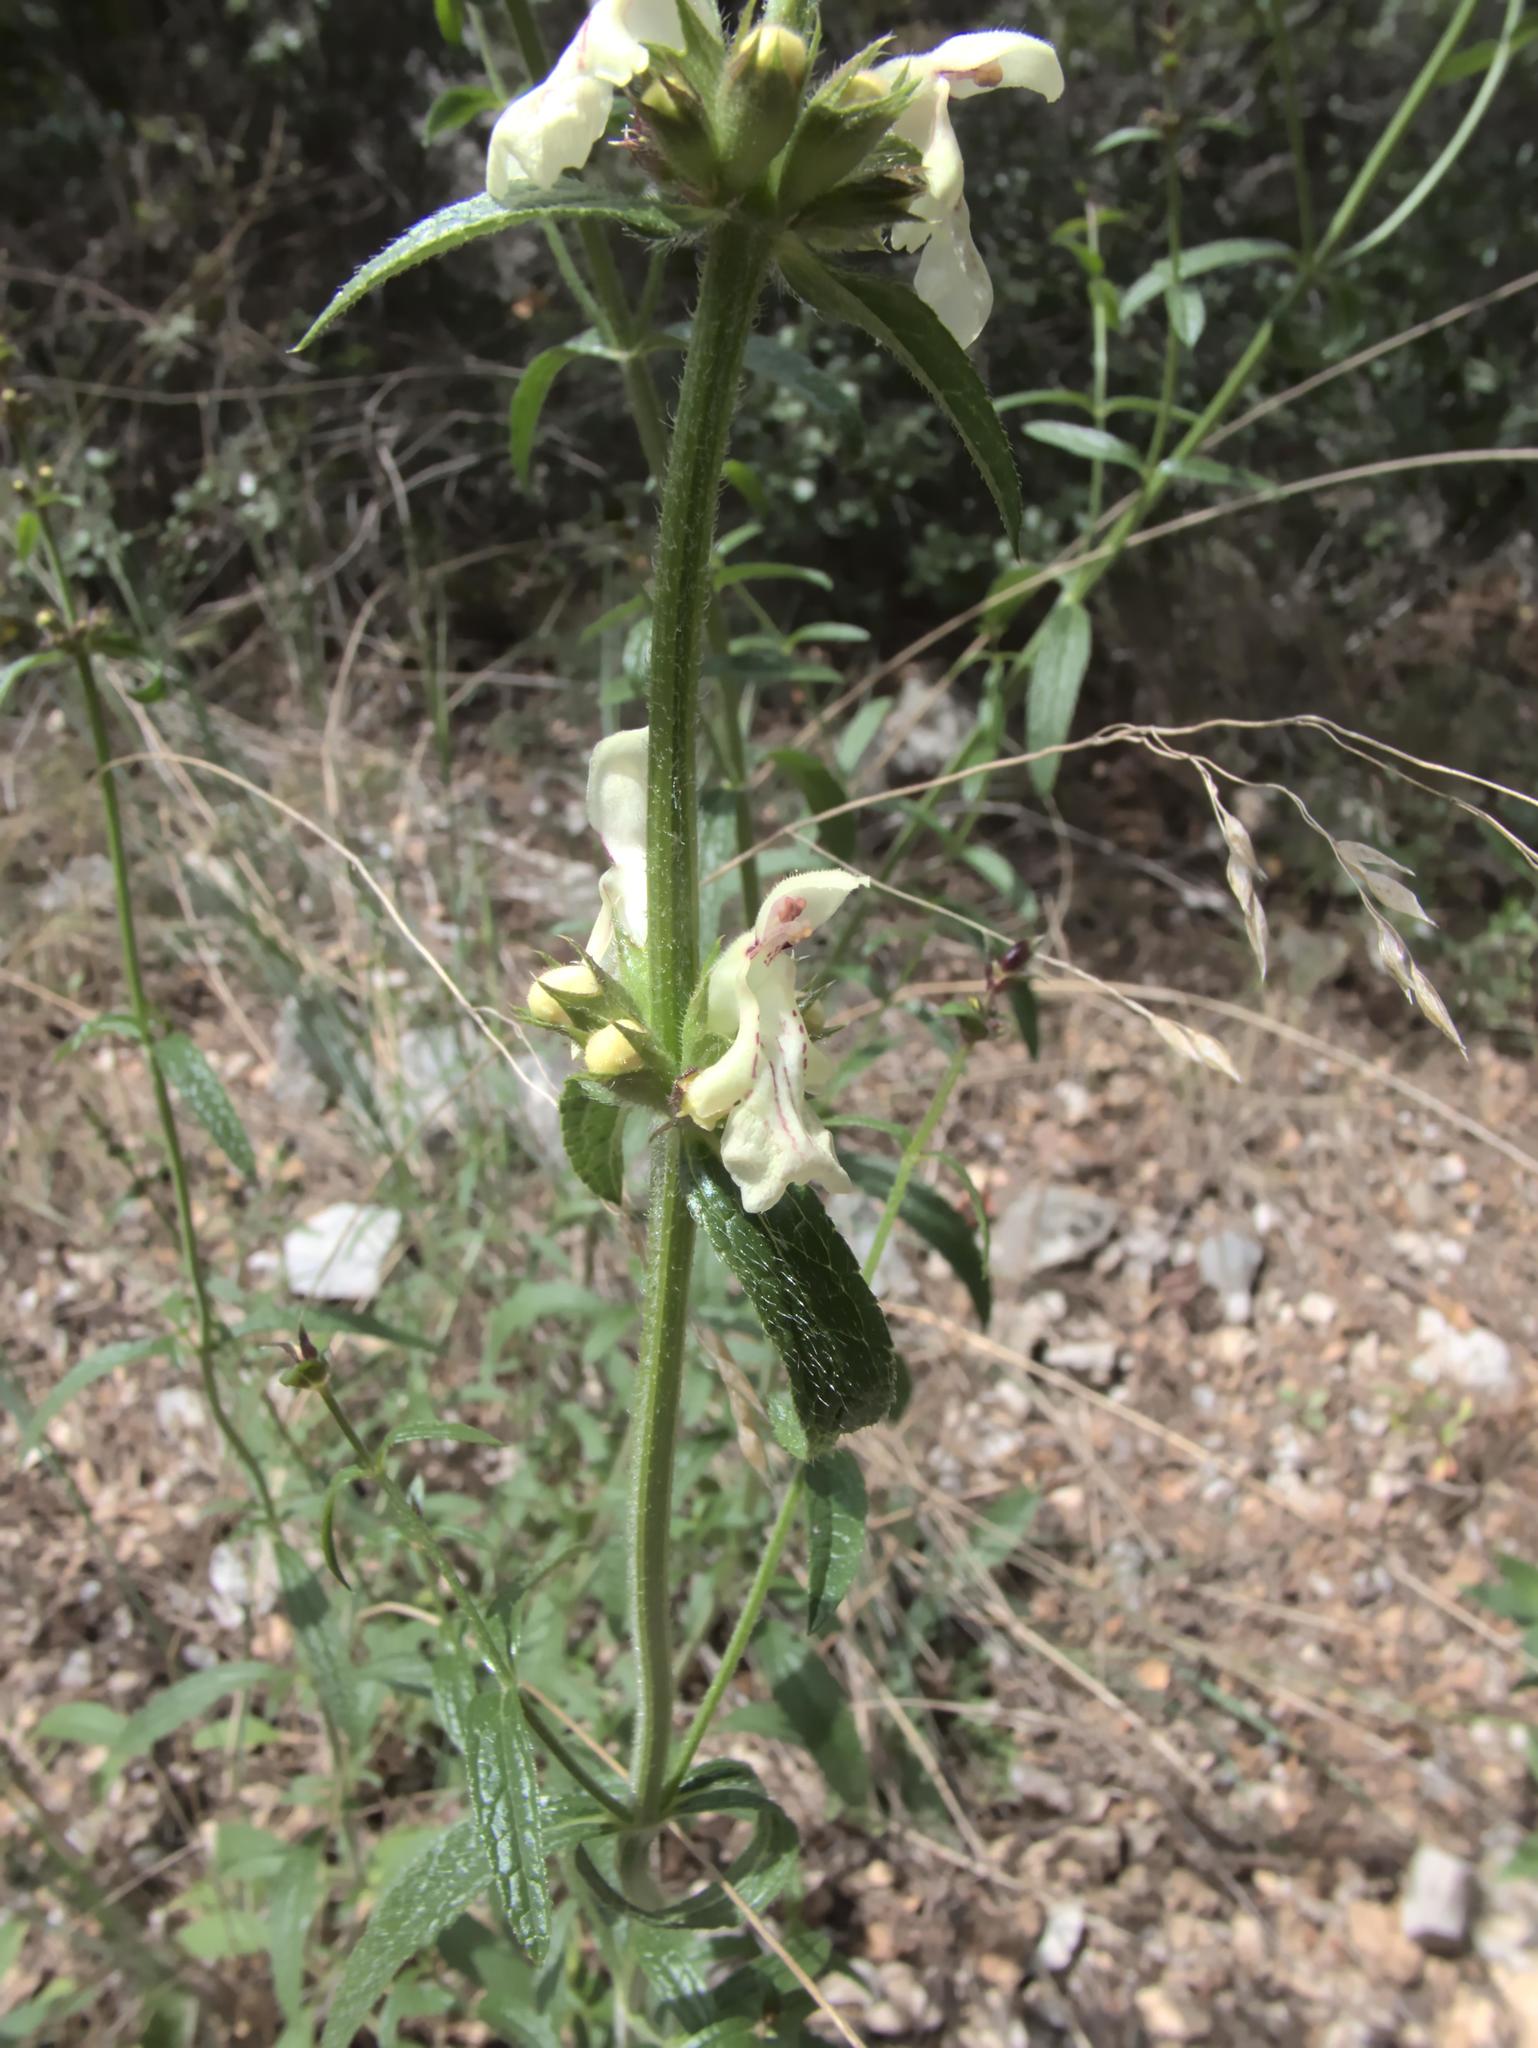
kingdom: Plantae
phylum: Tracheophyta
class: Magnoliopsida
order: Lamiales
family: Lamiaceae
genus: Stachys
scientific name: Stachys recta
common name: Perennial yellow-woundwort
